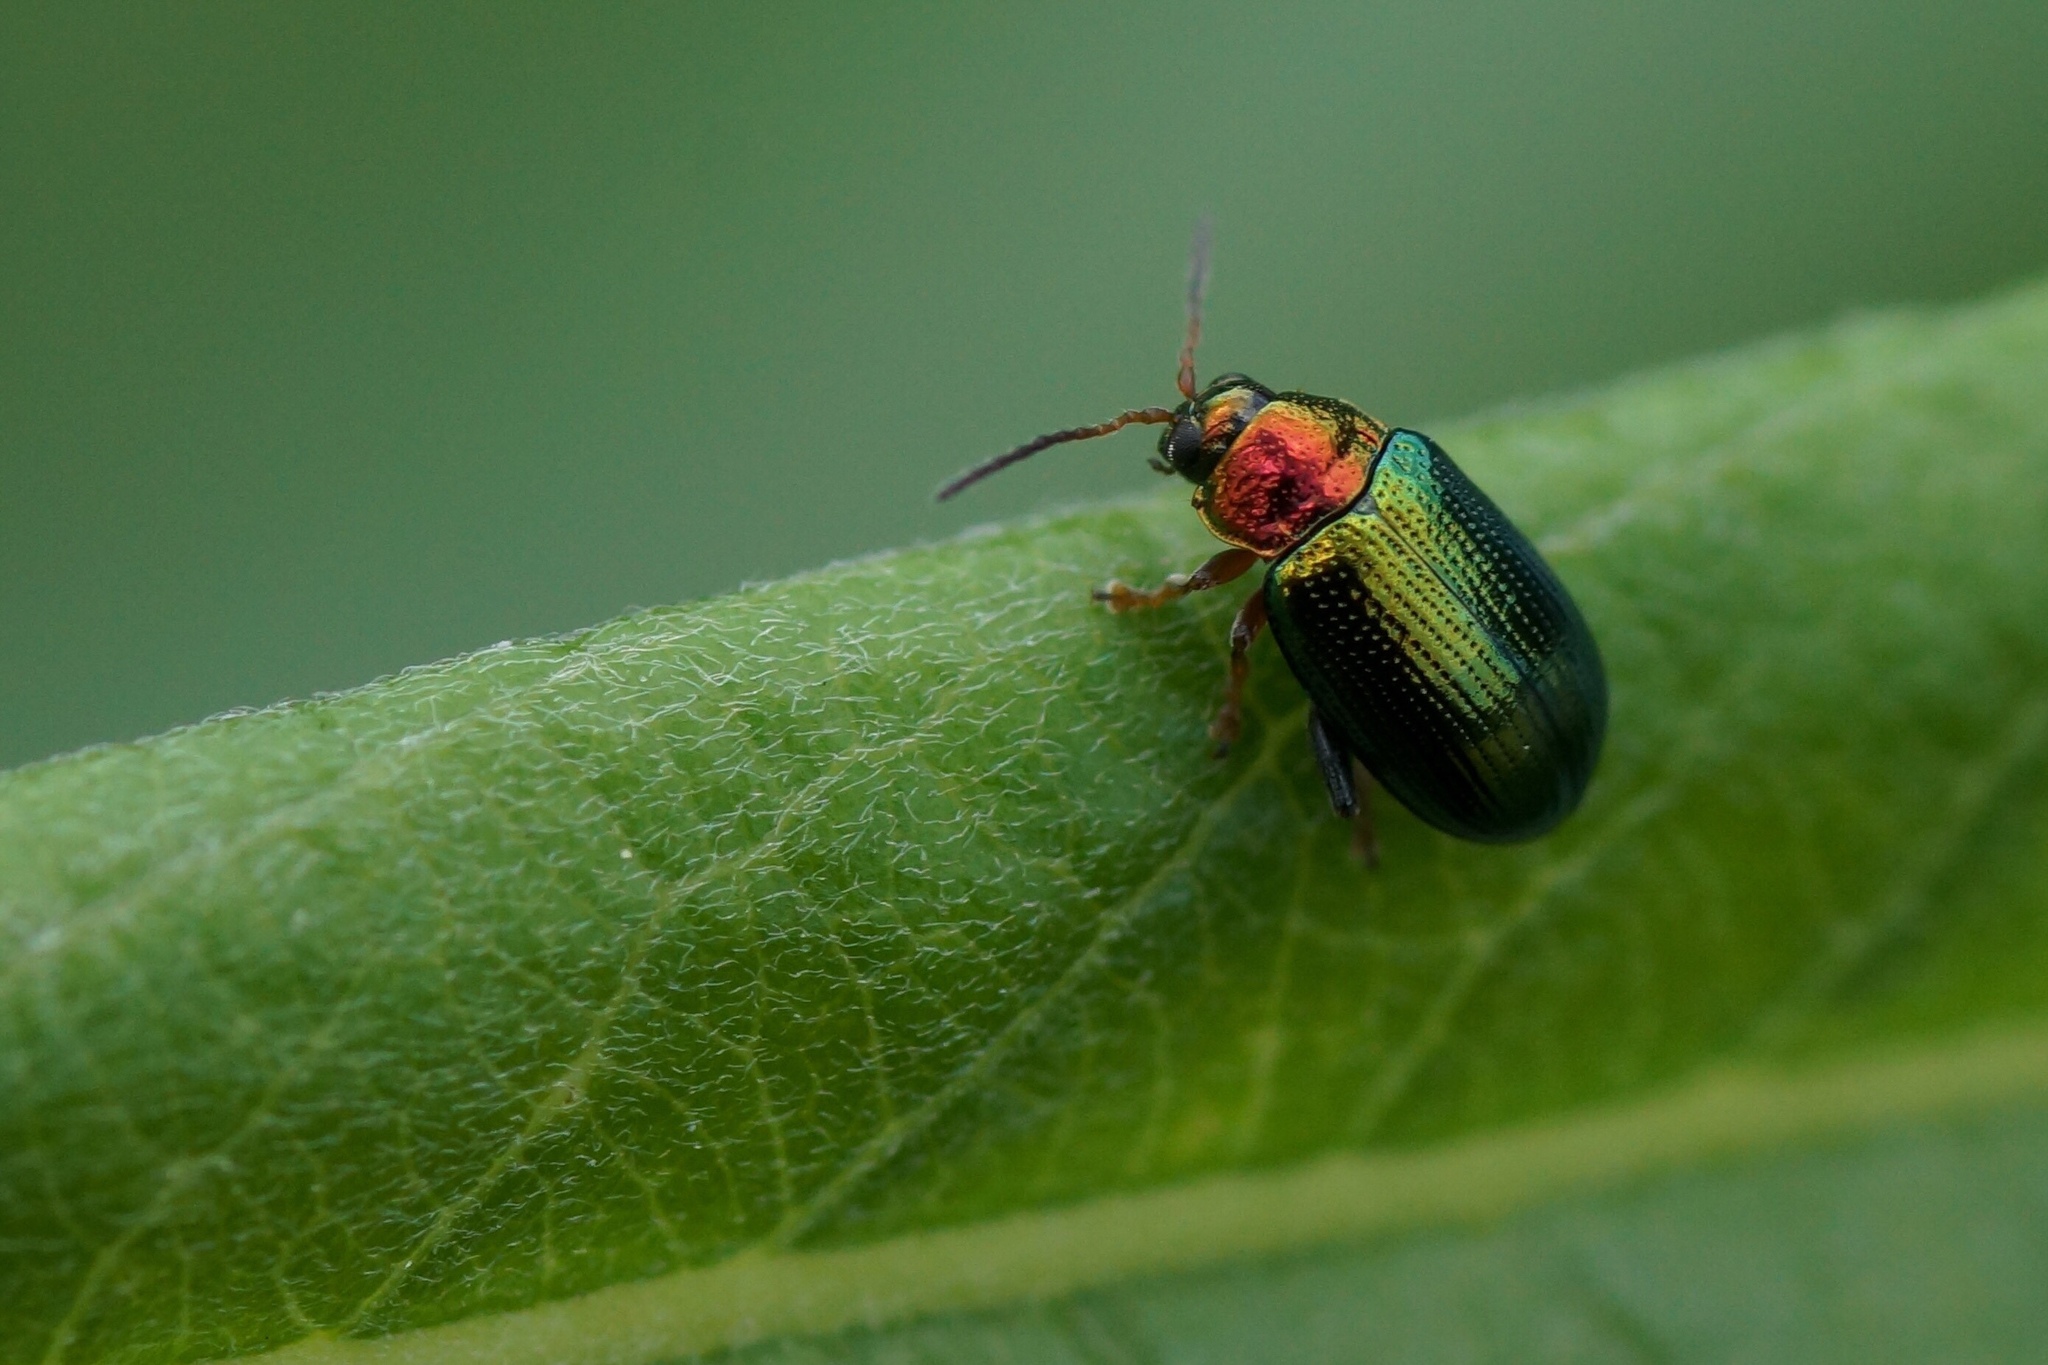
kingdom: Animalia
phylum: Arthropoda
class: Insecta
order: Coleoptera
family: Chrysomelidae
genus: Crepidodera
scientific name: Crepidodera aurata
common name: Willow flea beetle
